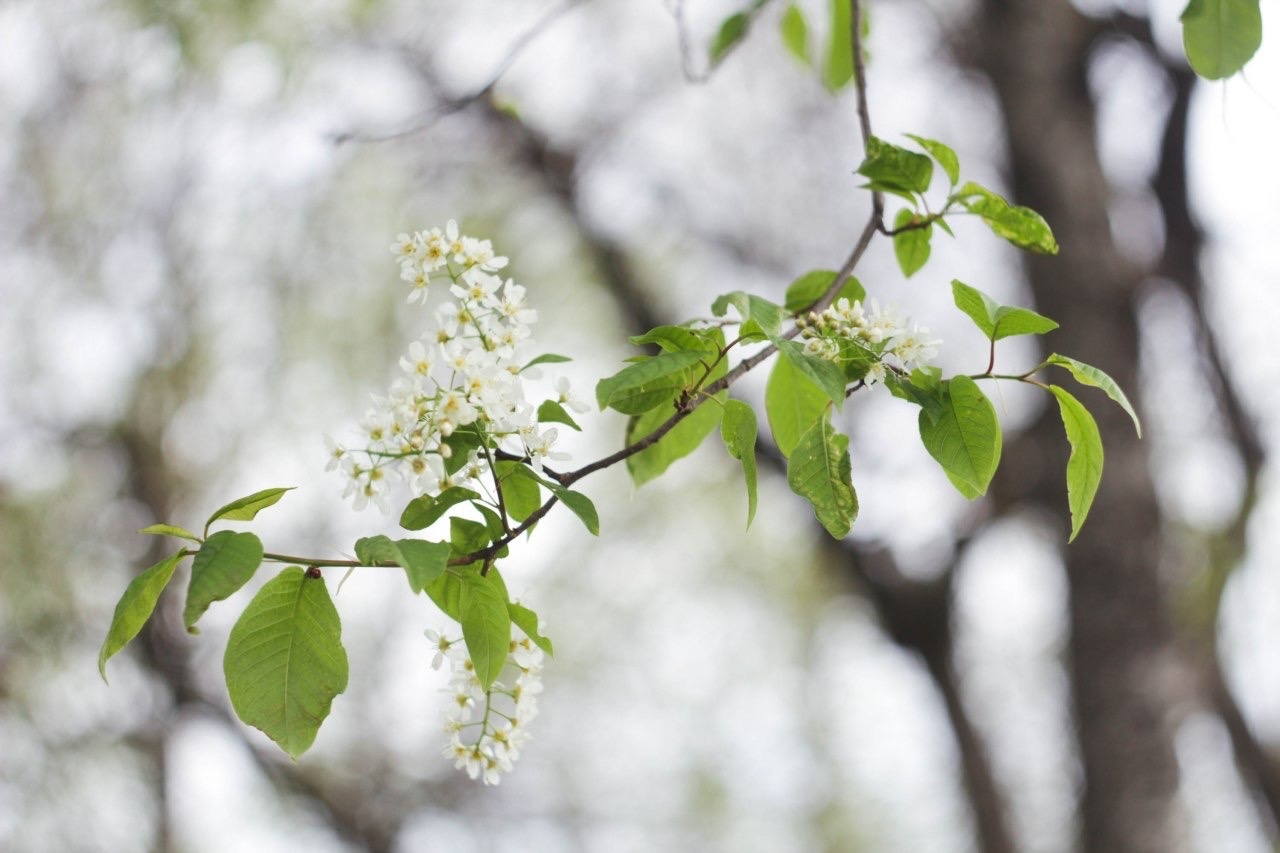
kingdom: Plantae
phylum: Tracheophyta
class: Magnoliopsida
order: Rosales
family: Rosaceae
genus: Prunus
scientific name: Prunus padus
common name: Bird cherry
